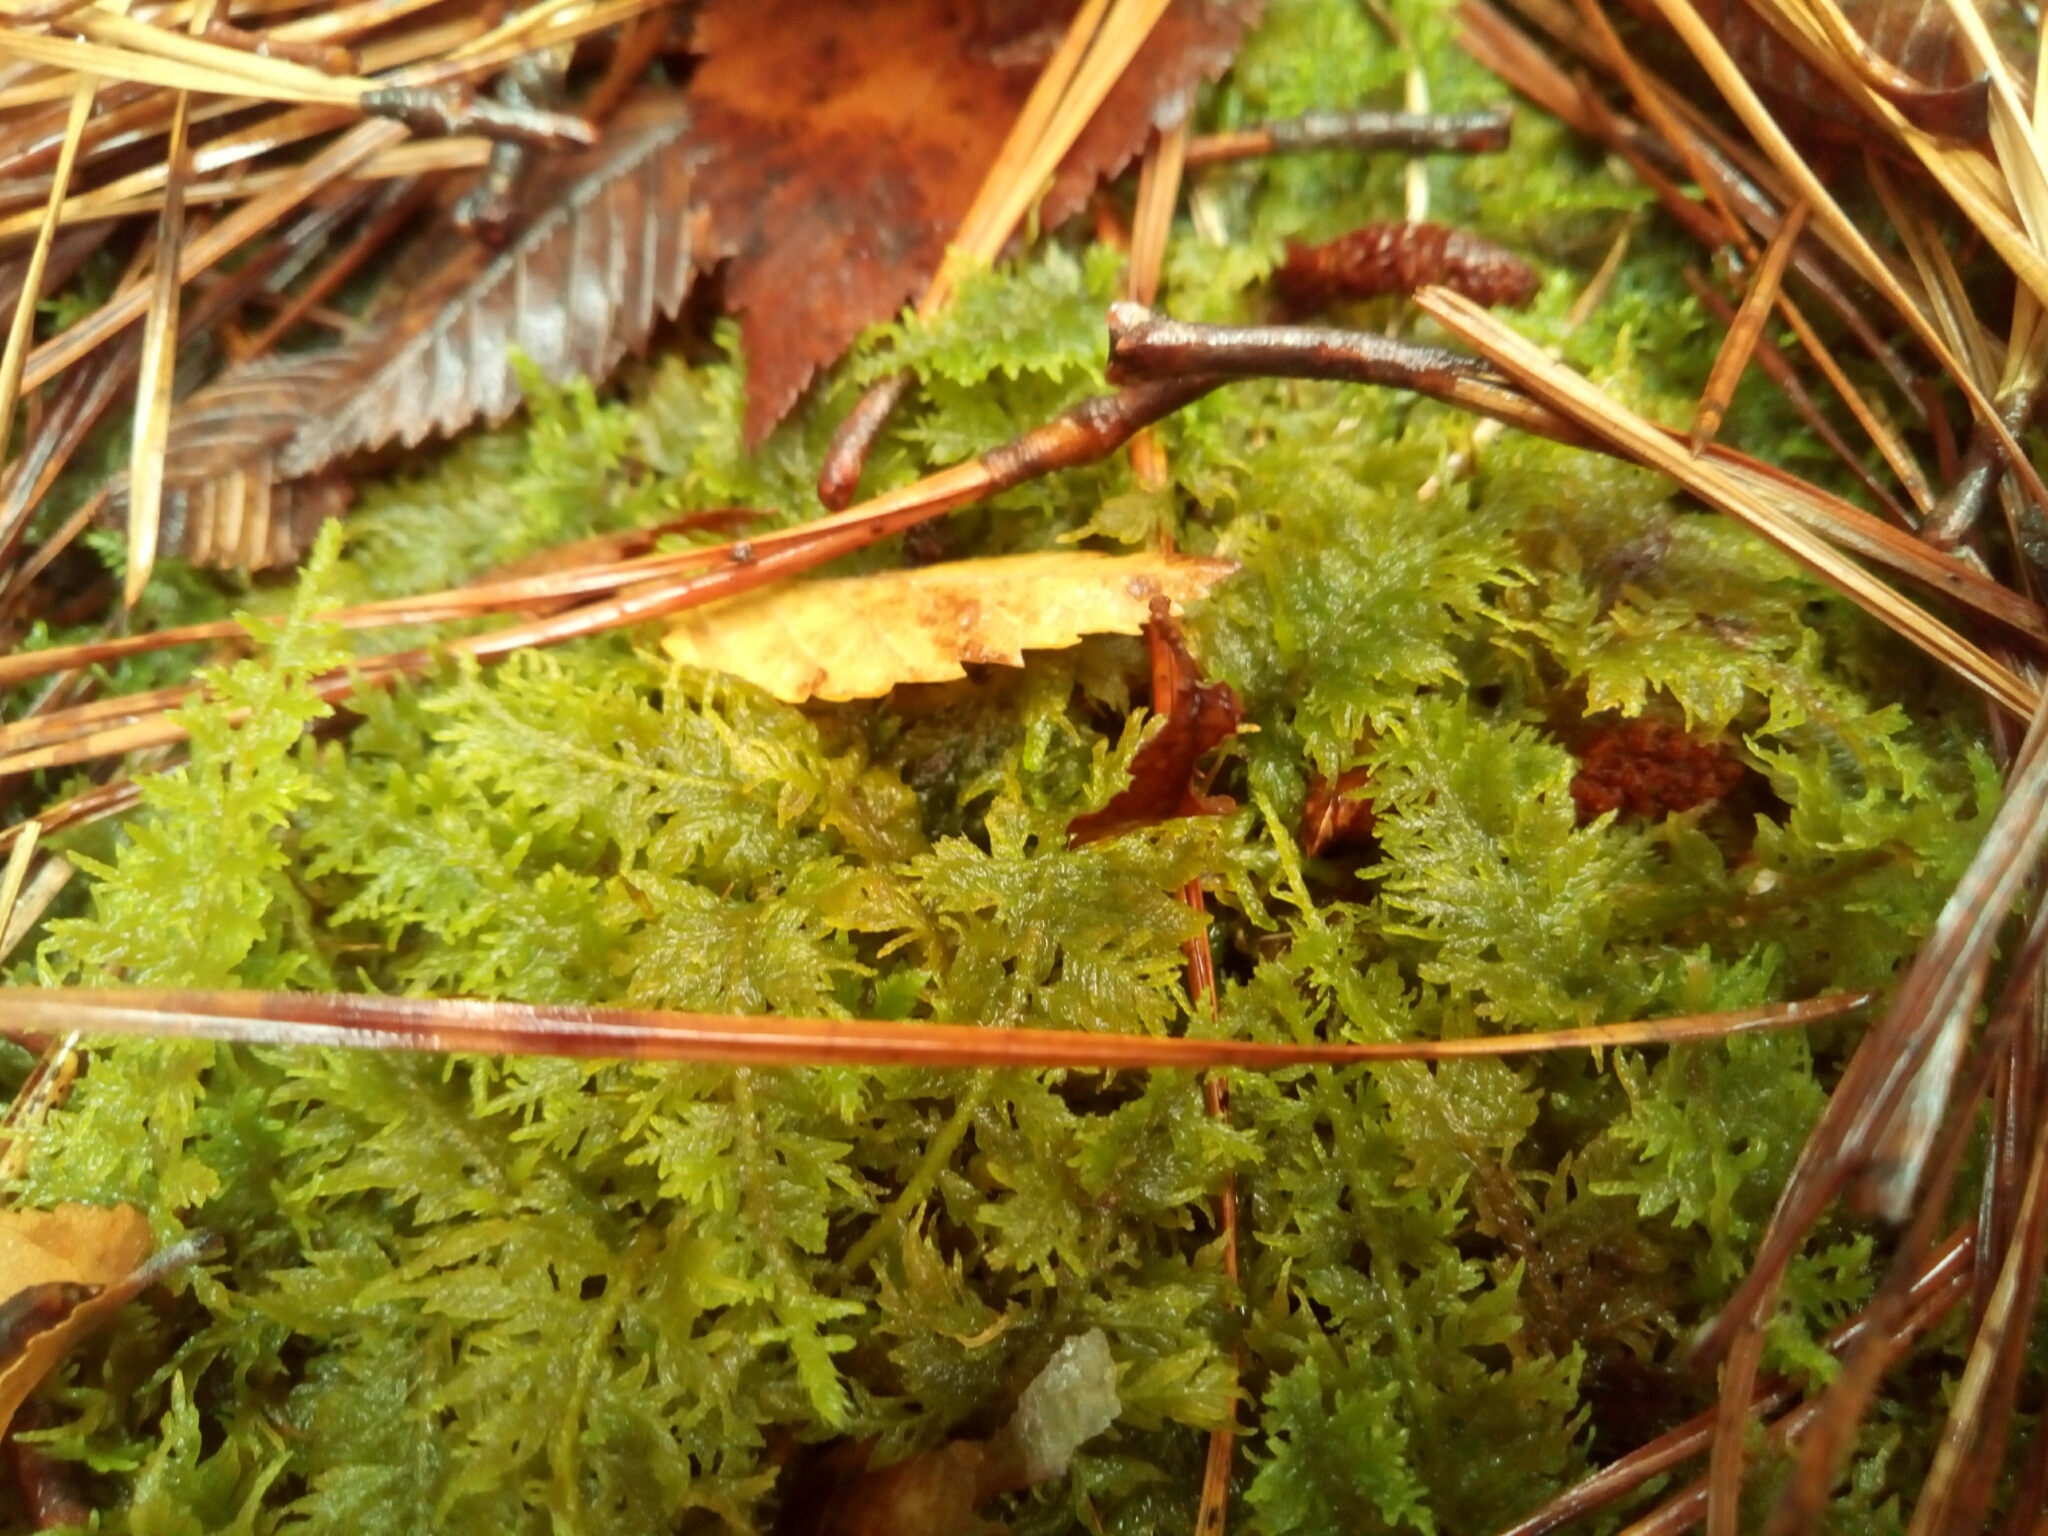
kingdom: Plantae
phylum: Bryophyta
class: Bryopsida
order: Hypnales
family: Thuidiaceae
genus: Thuidium
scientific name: Thuidium delicatulum
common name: Delicate fern moss
